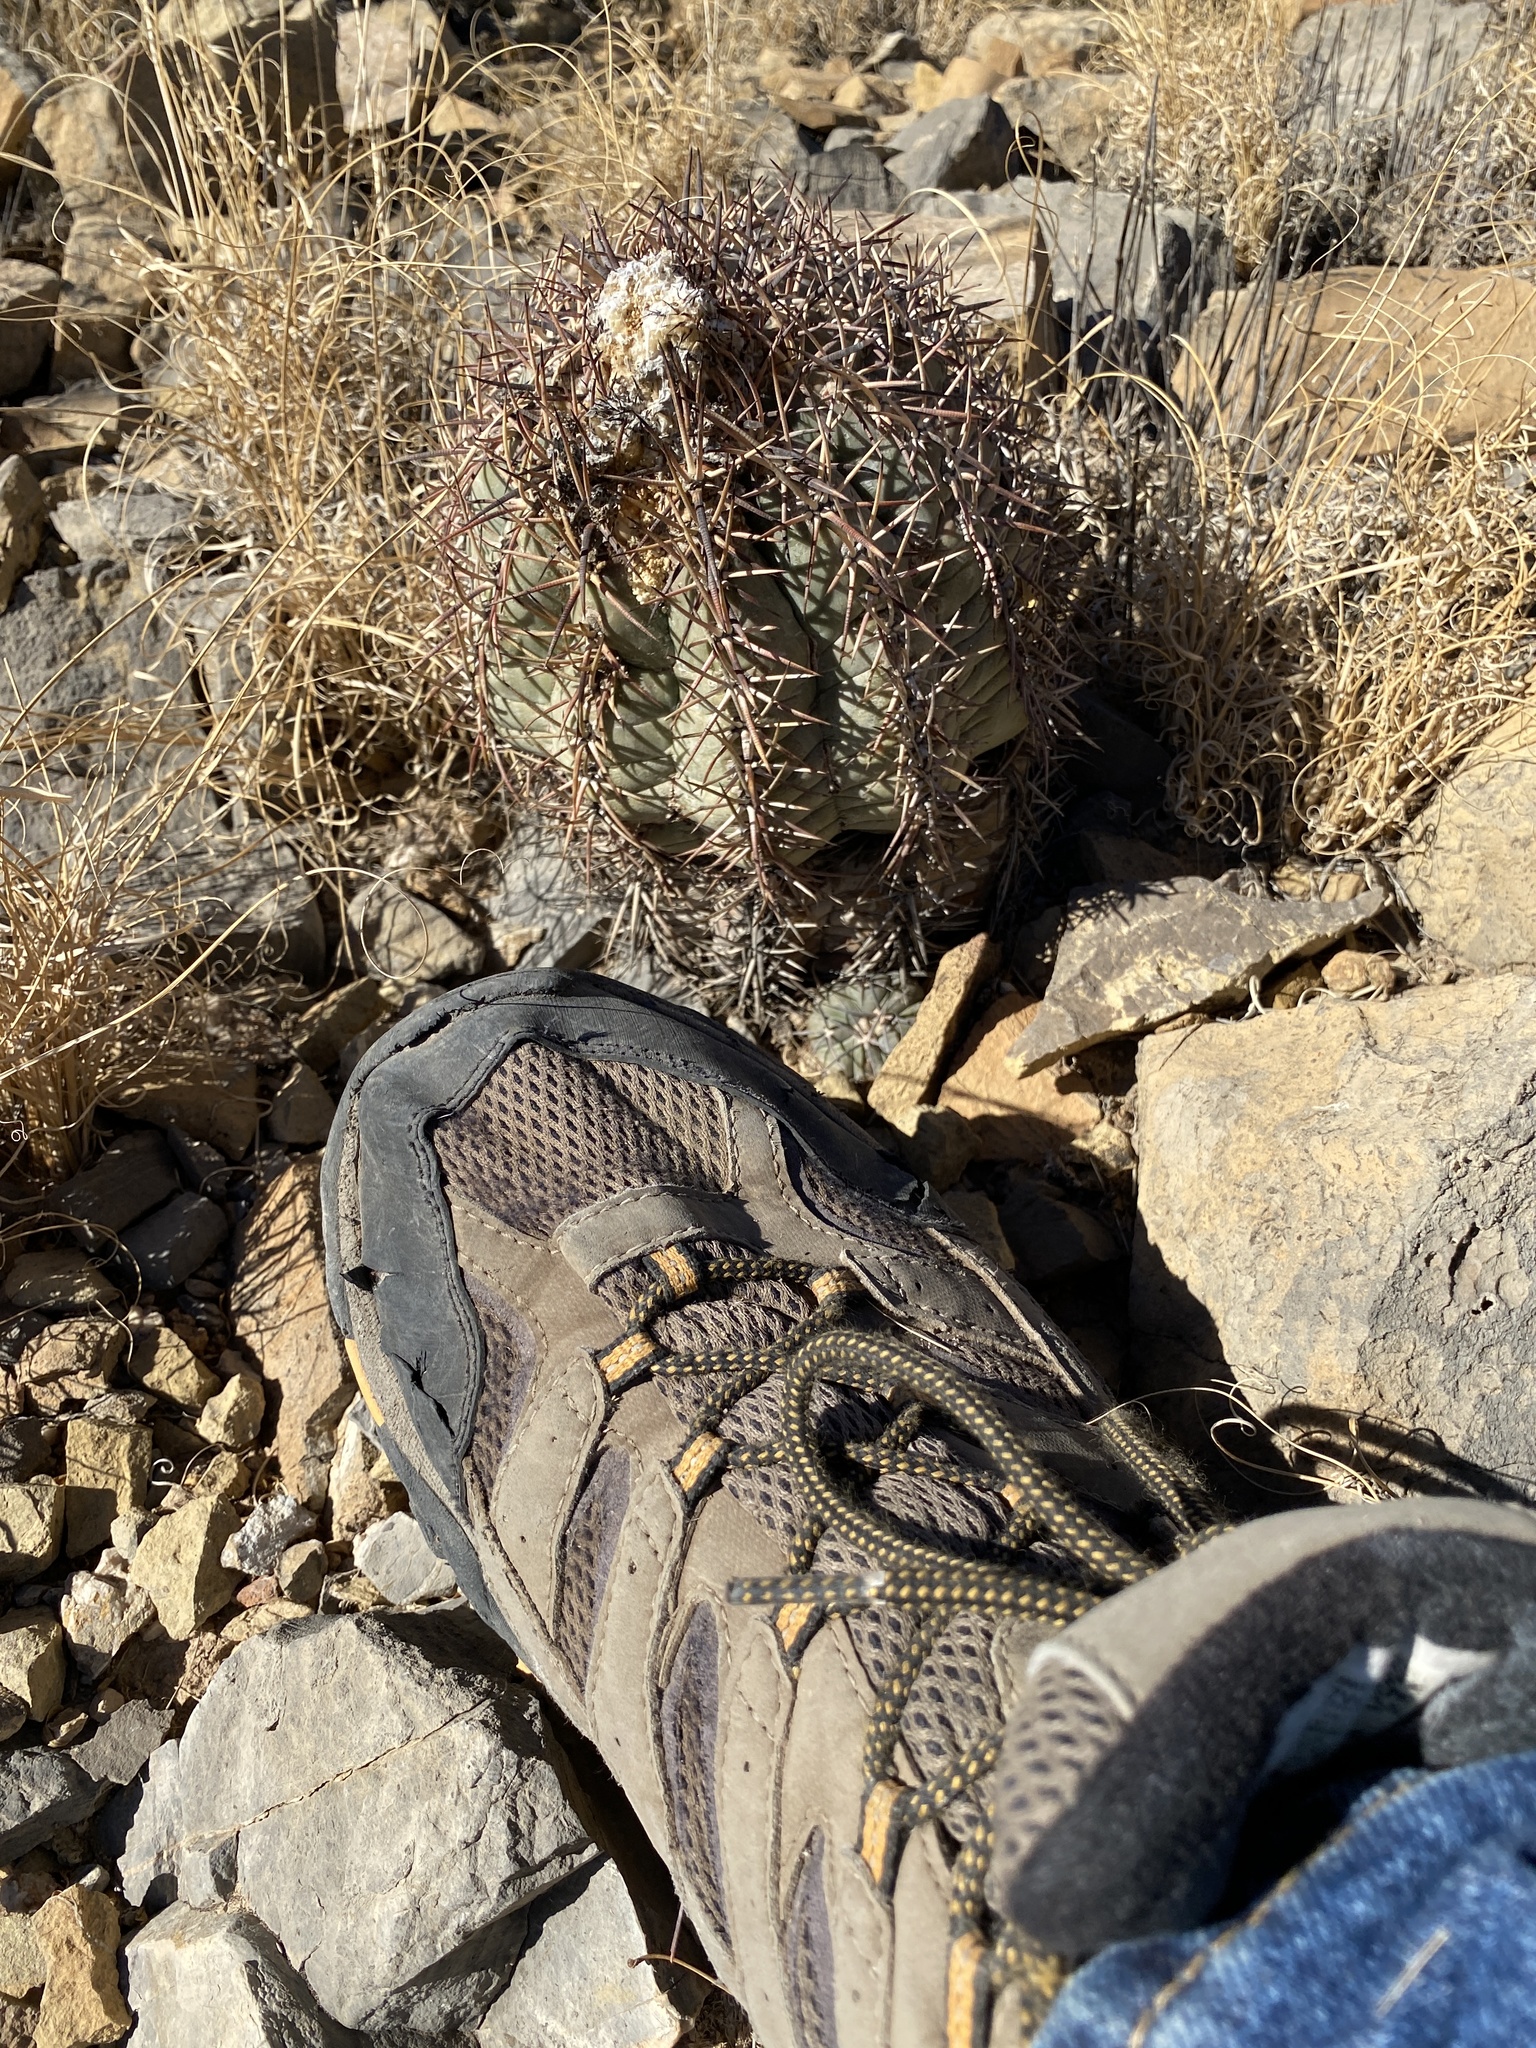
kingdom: Plantae
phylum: Tracheophyta
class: Magnoliopsida
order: Caryophyllales
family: Cactaceae
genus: Echinocactus
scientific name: Echinocactus horizonthalonius
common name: Devilshead
